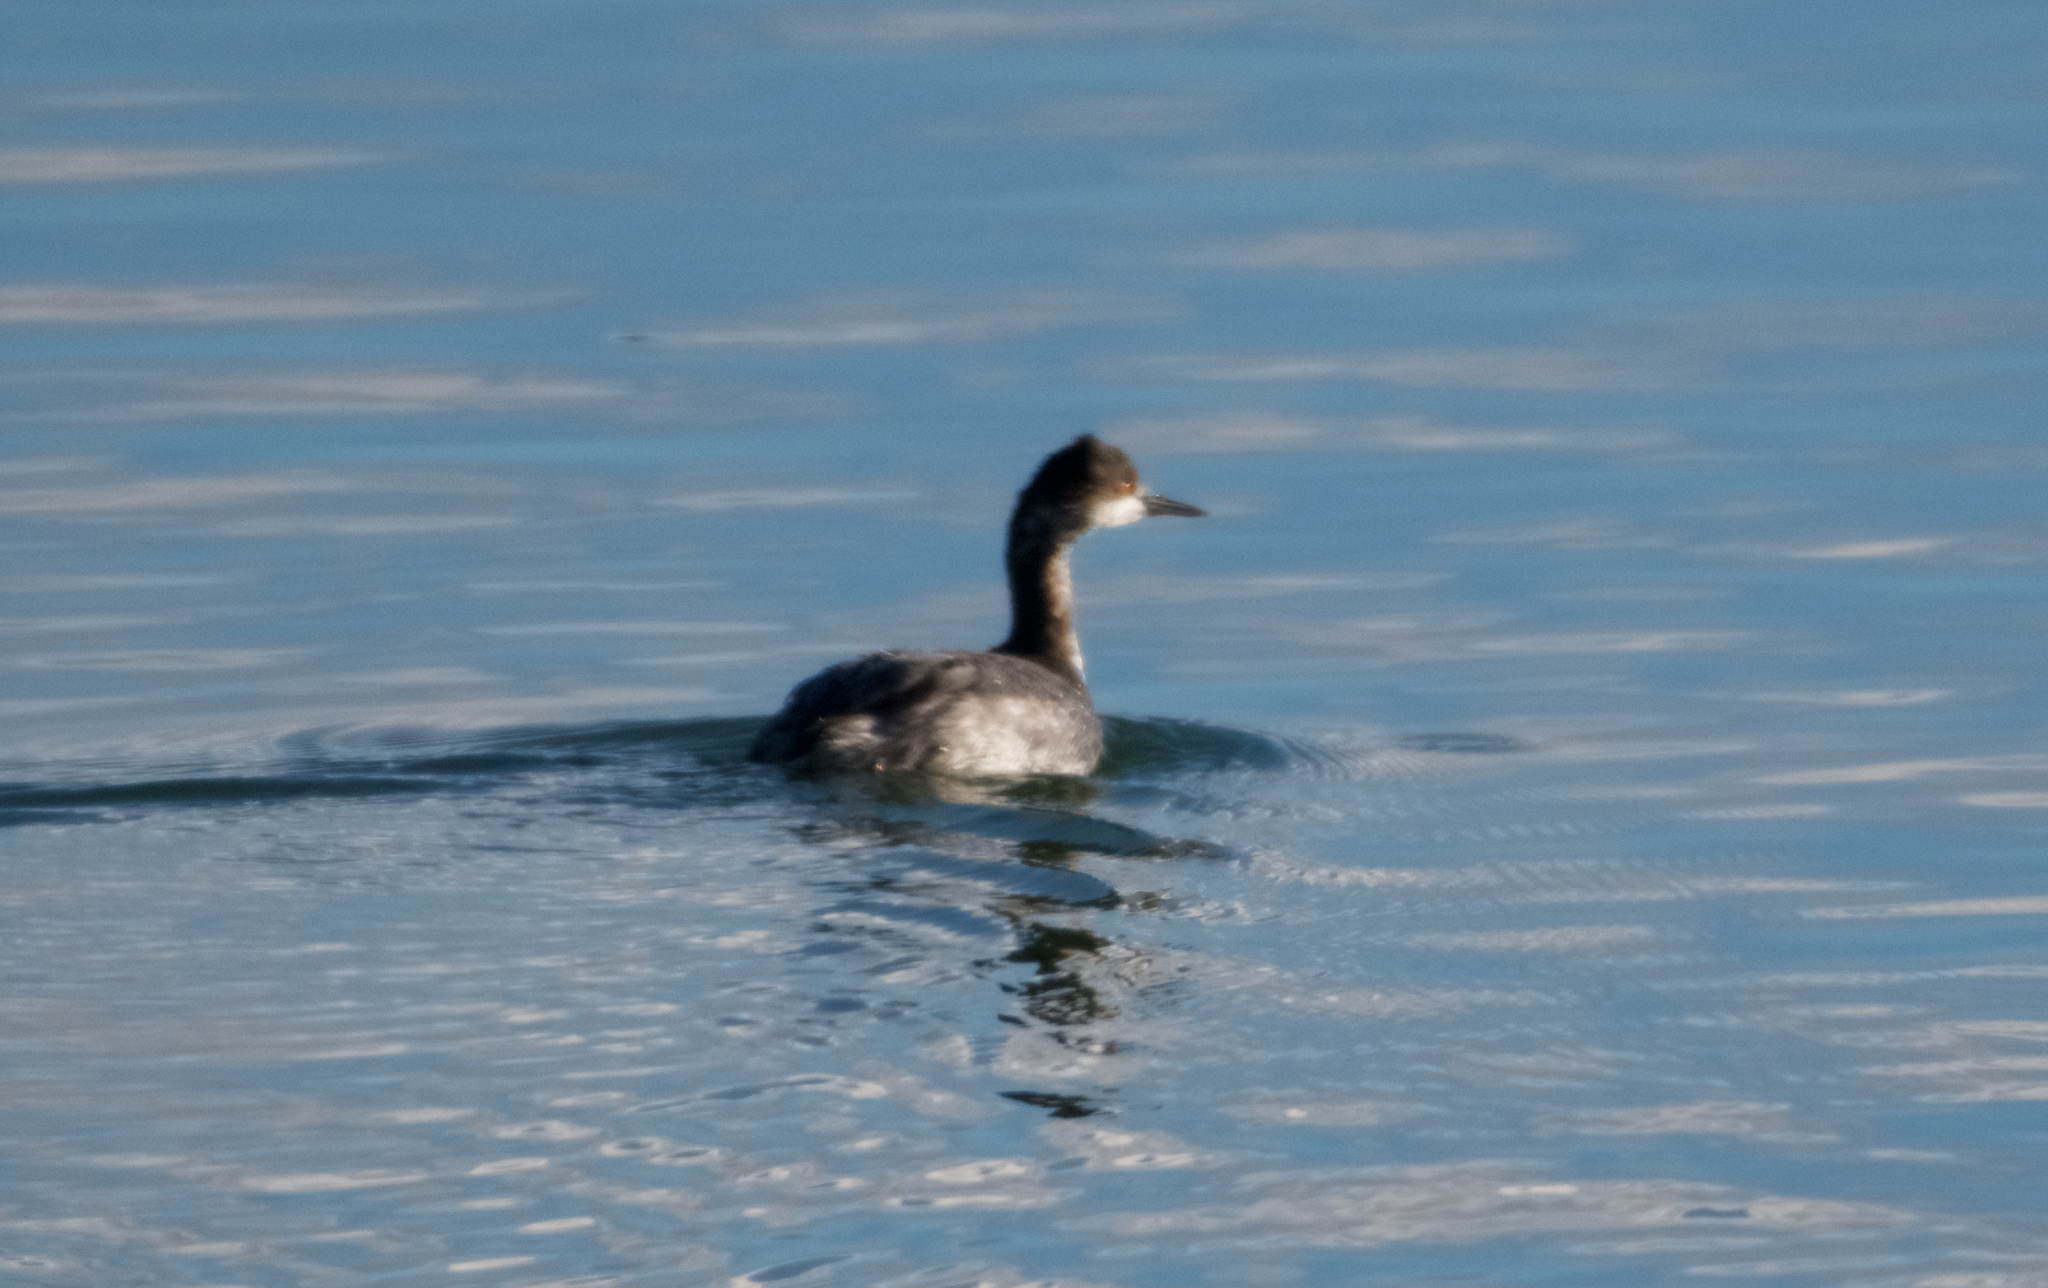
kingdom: Animalia
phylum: Chordata
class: Aves
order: Podicipediformes
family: Podicipedidae
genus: Podiceps
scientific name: Podiceps nigricollis
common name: Black-necked grebe
